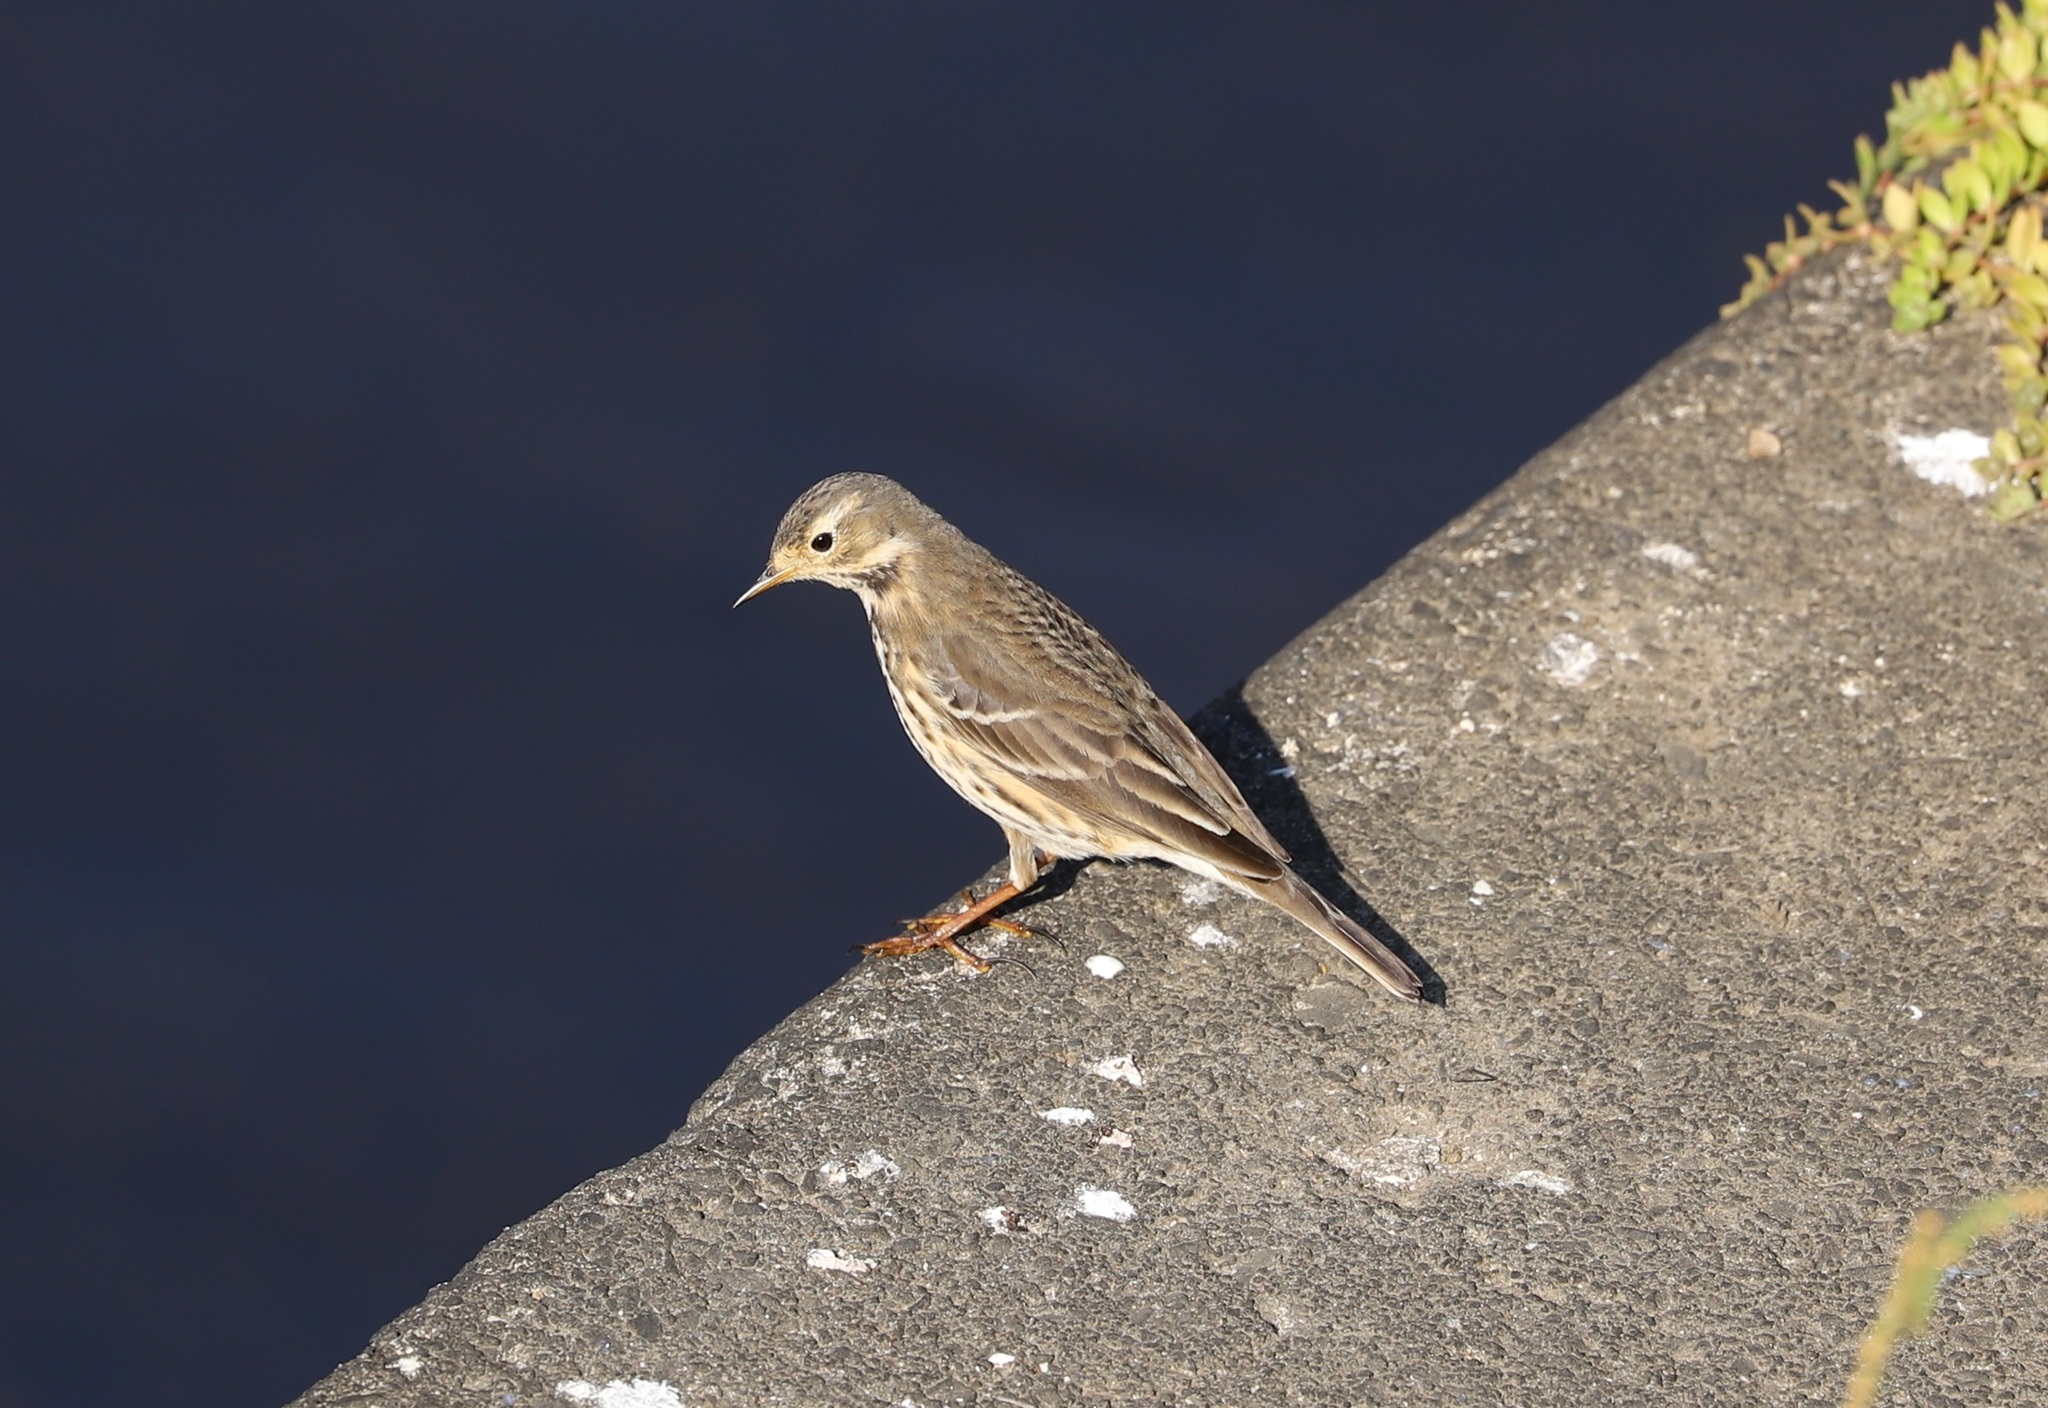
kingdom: Animalia
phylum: Chordata
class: Aves
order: Passeriformes
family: Motacillidae
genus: Anthus
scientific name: Anthus rubescens
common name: Buff-bellied pipit
